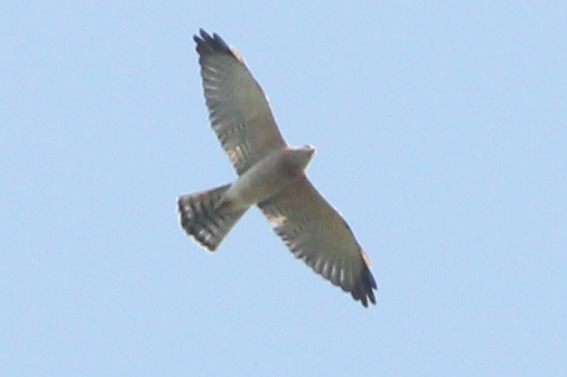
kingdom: Animalia
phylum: Chordata
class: Aves
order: Accipitriformes
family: Accipitridae
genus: Accipiter
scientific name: Accipiter brevipes
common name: Levant sparrowhawk
